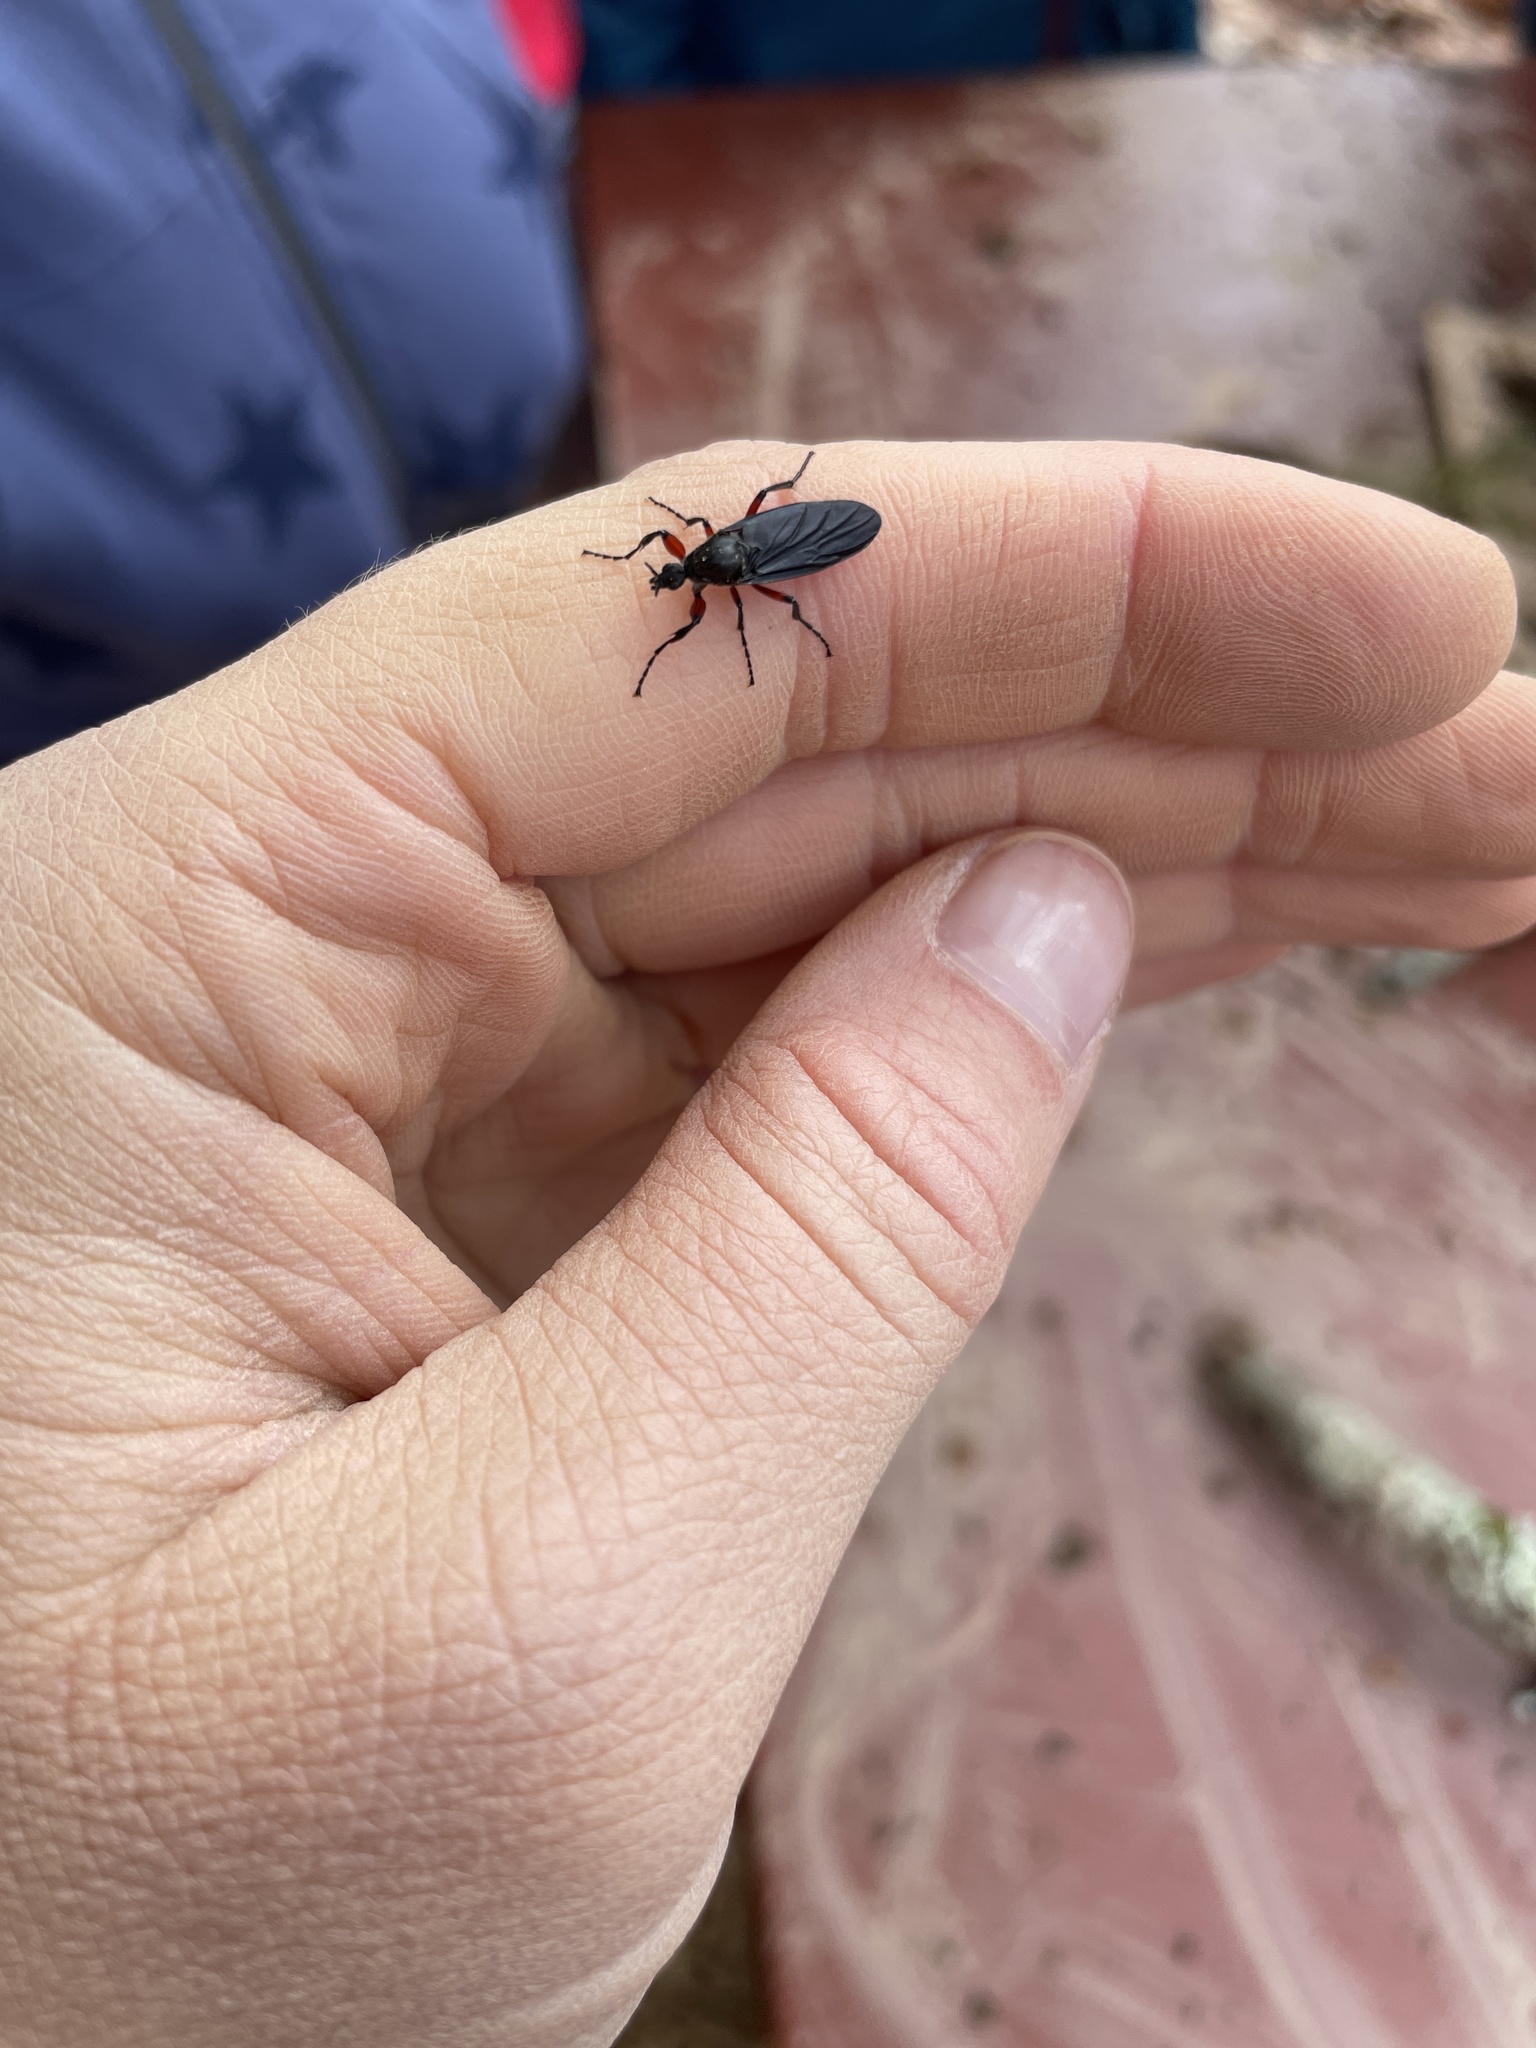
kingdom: Animalia
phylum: Arthropoda
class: Insecta
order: Diptera
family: Bibionidae
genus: Bibio
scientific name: Bibio femoratus
